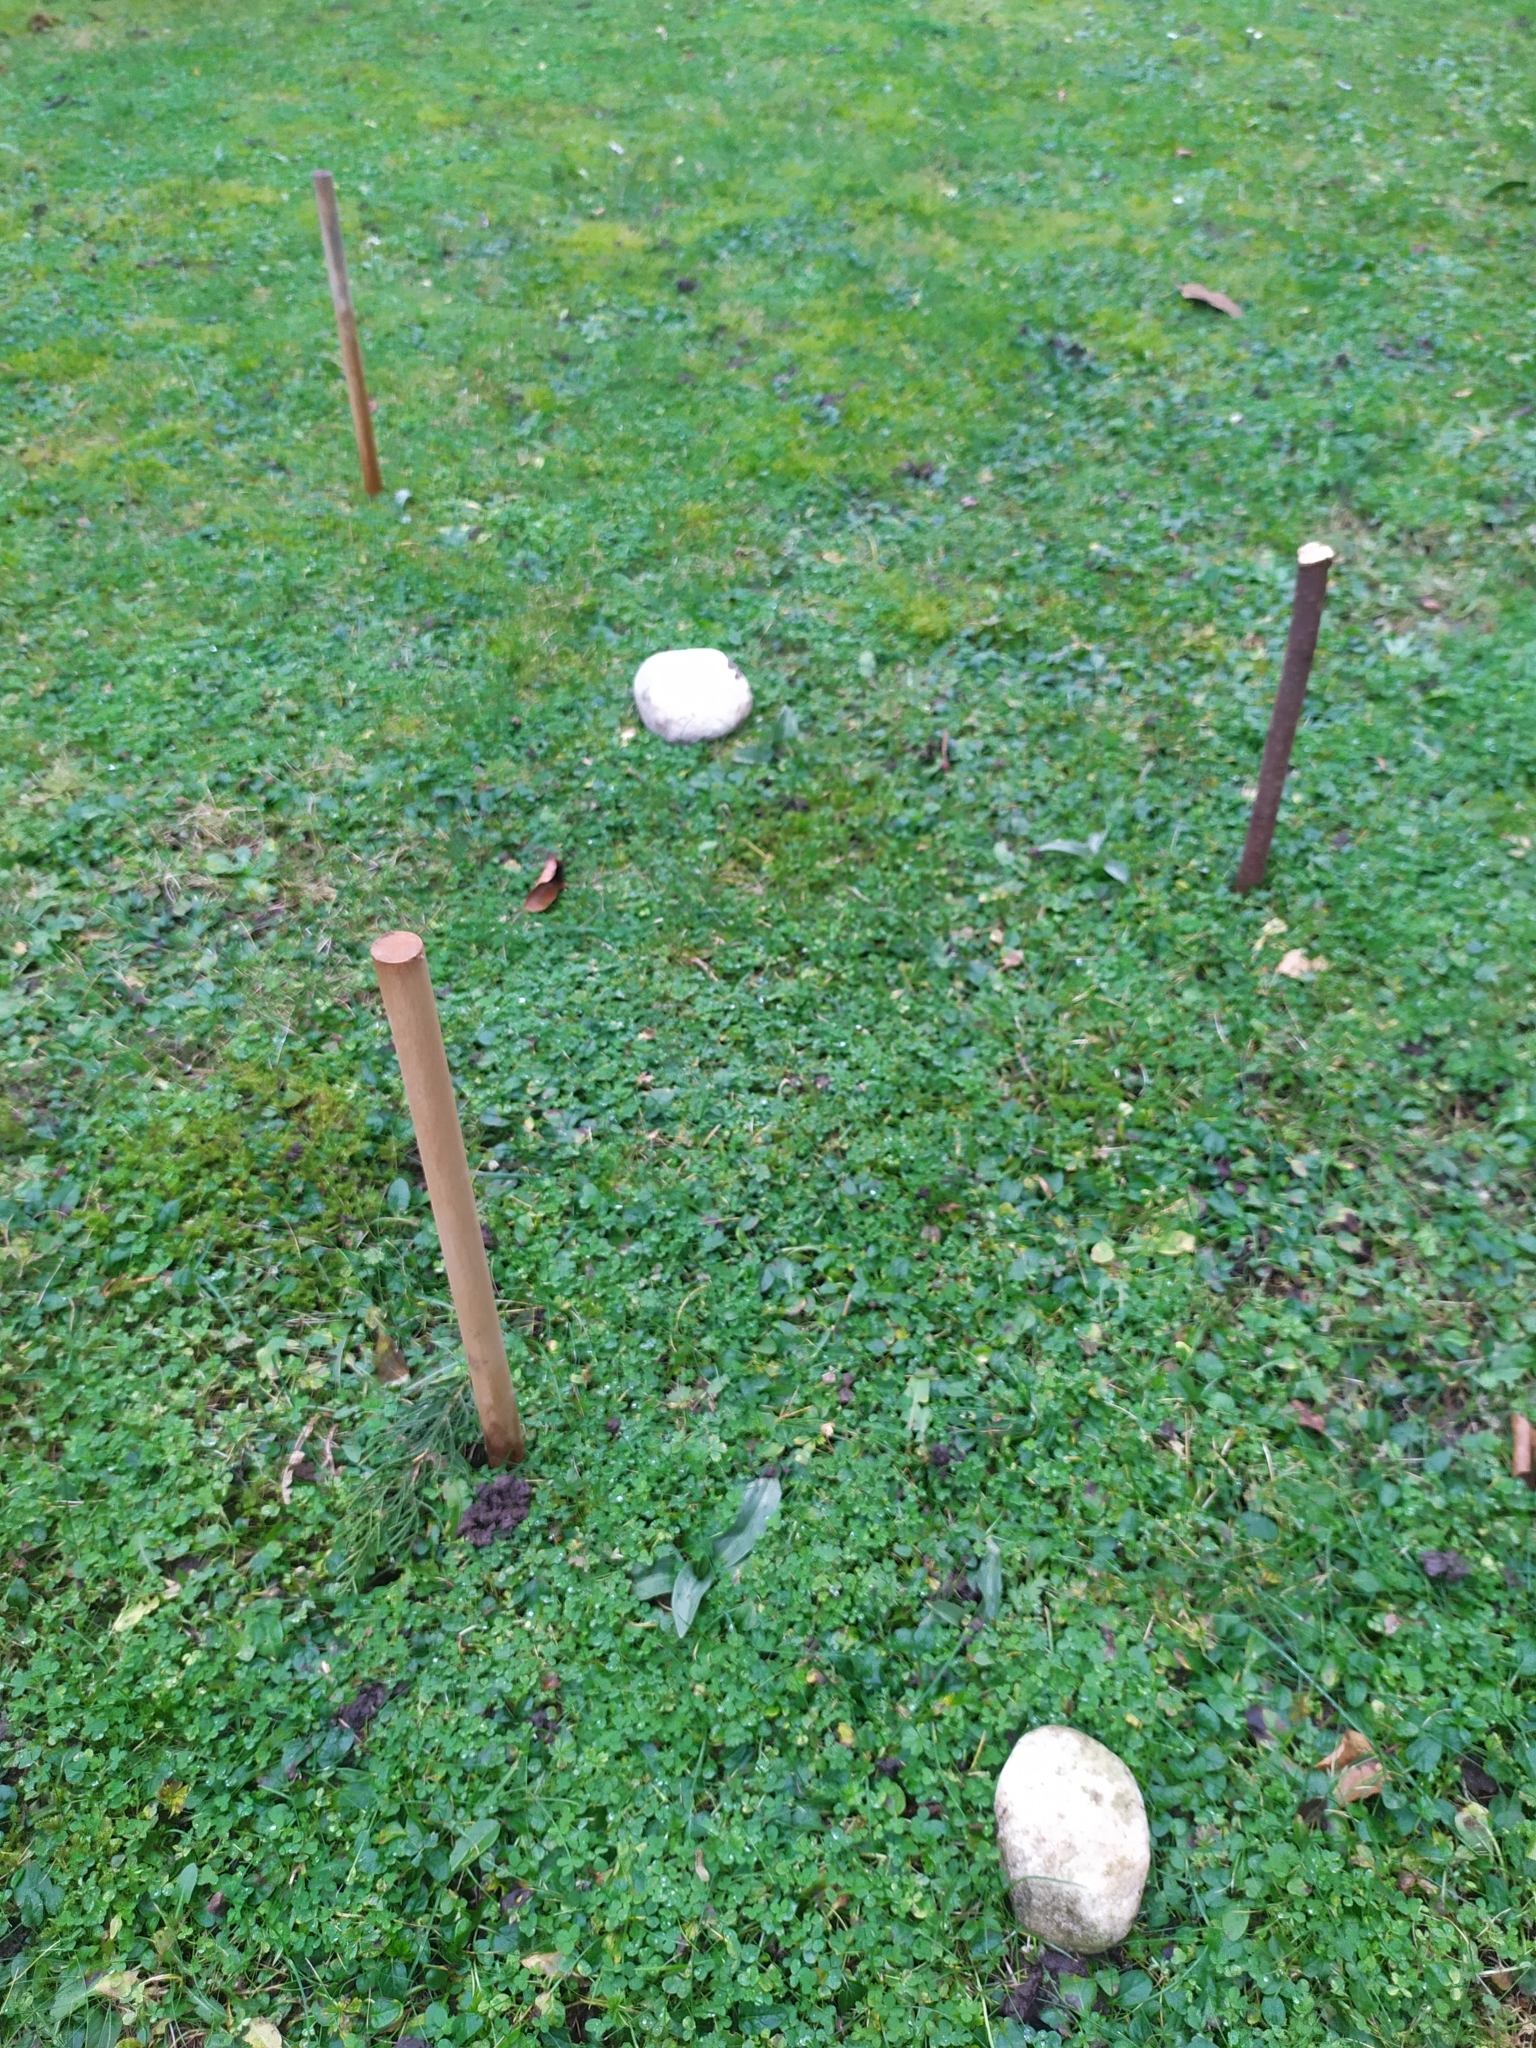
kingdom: Plantae
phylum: Tracheophyta
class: Liliopsida
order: Asparagales
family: Orchidaceae
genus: Ophrys
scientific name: Ophrys apifera
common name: Bee orchid
